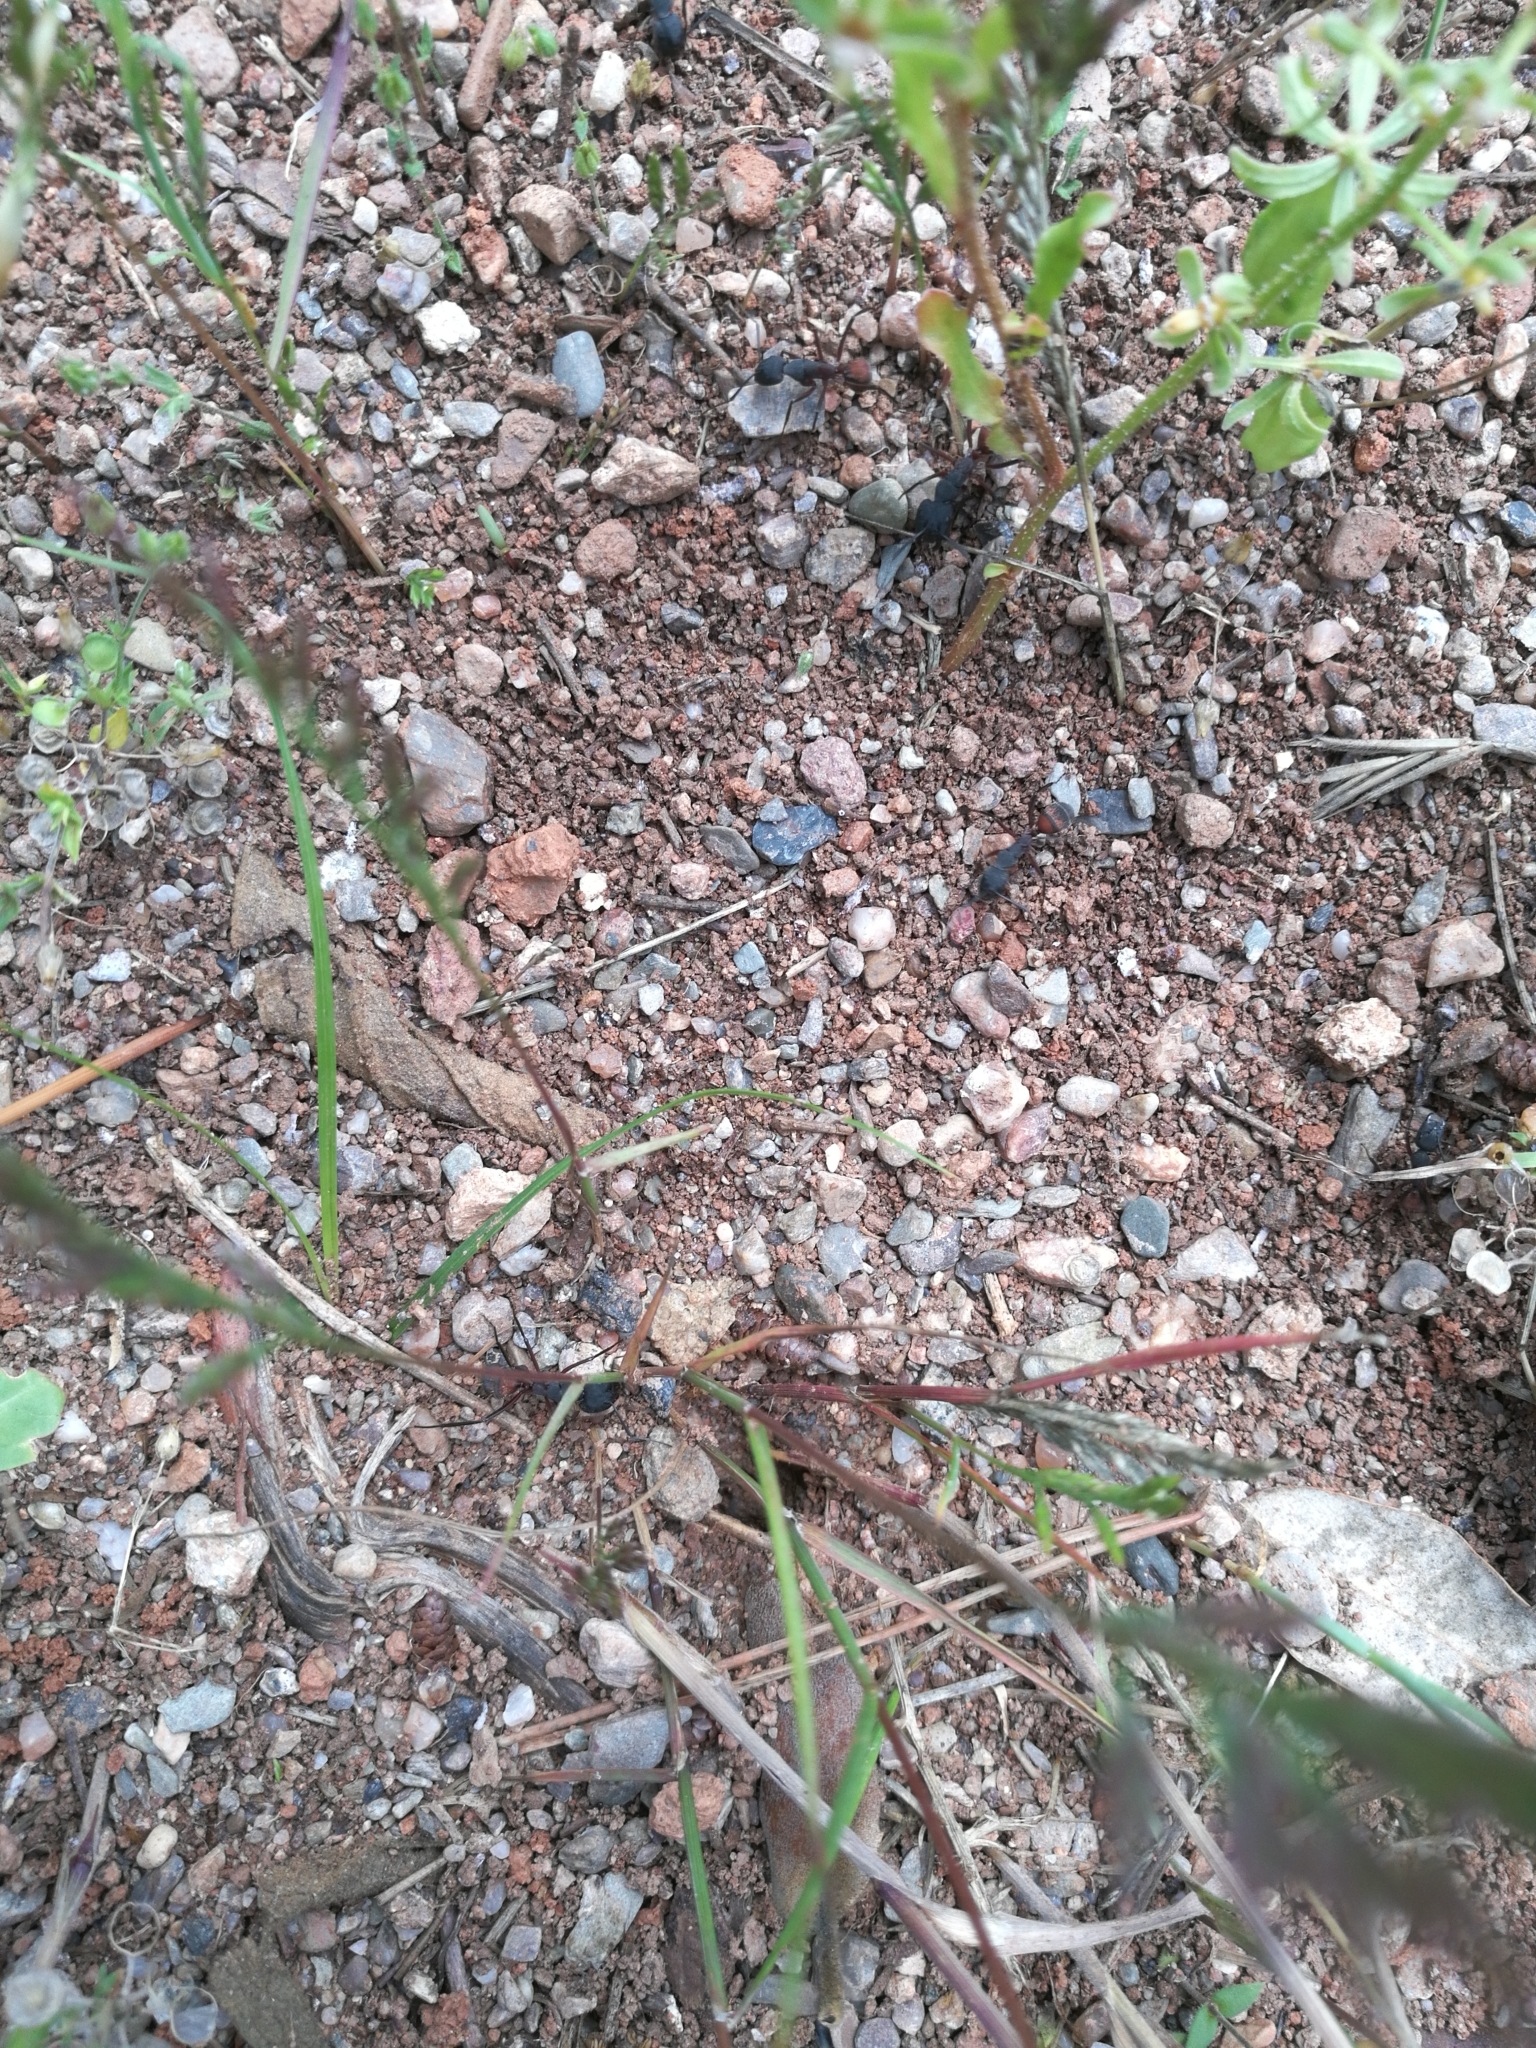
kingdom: Animalia
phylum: Arthropoda
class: Insecta
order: Hymenoptera
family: Formicidae
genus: Camponotus
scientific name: Camponotus cruentatus
